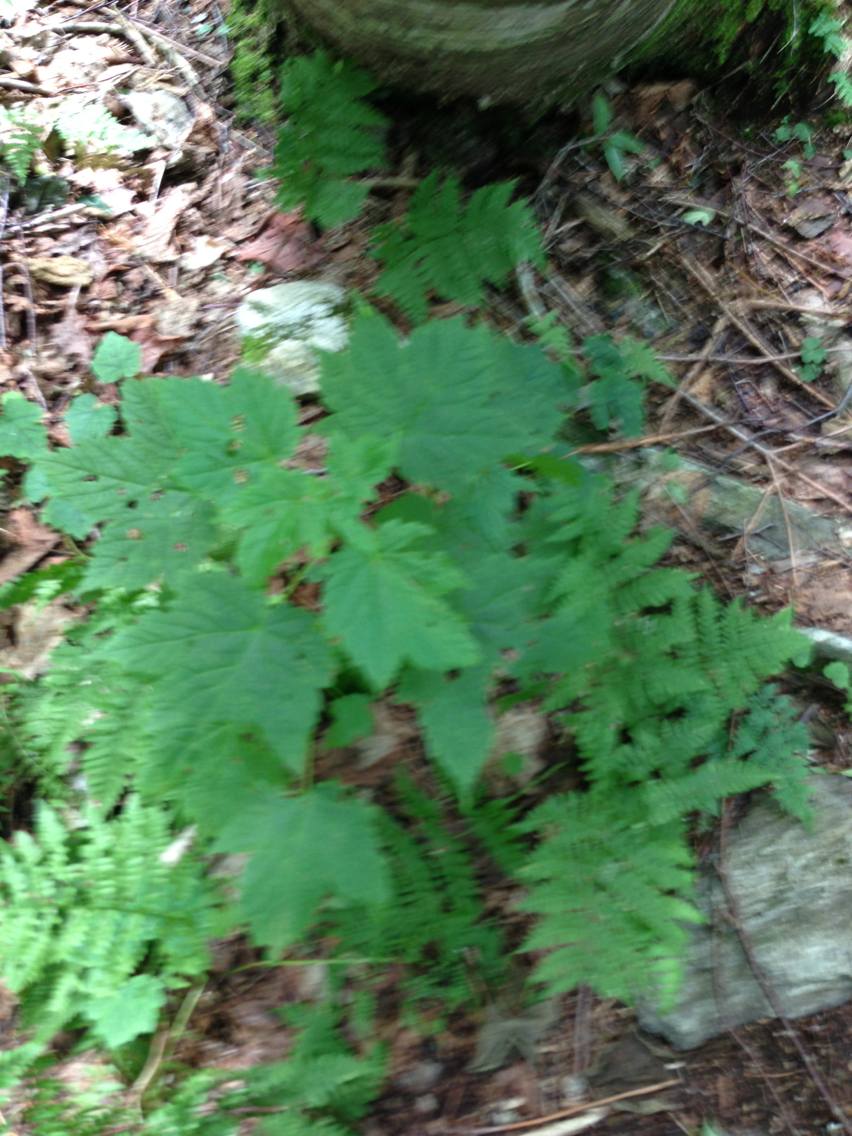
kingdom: Plantae
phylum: Tracheophyta
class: Magnoliopsida
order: Sapindales
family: Sapindaceae
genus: Acer
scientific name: Acer spicatum
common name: Mountain maple
